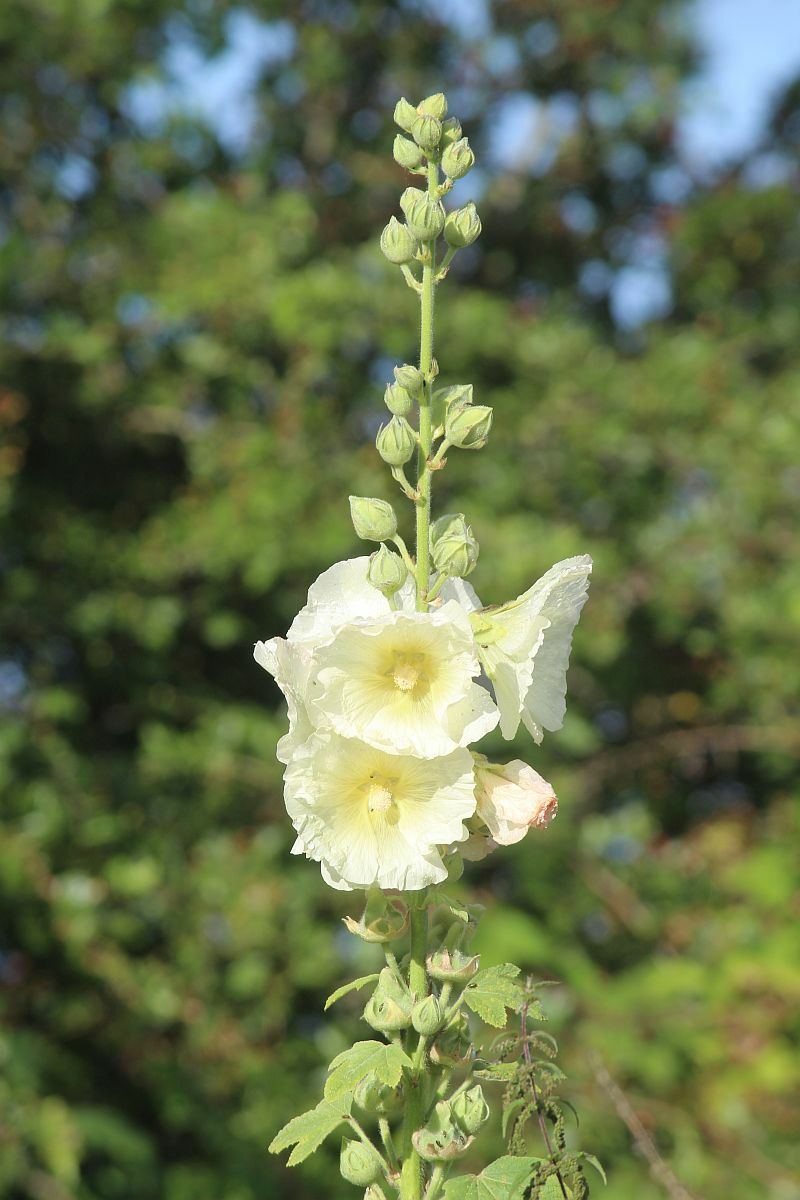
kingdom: Plantae
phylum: Tracheophyta
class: Magnoliopsida
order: Malvales
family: Malvaceae
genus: Alcea
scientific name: Alcea rosea
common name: Hollyhock
